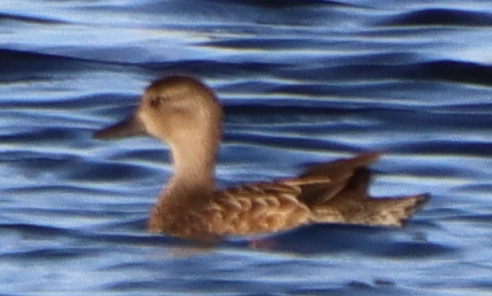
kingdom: Animalia
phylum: Chordata
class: Aves
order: Anseriformes
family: Anatidae
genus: Spatula
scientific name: Spatula discors
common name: Blue-winged teal
